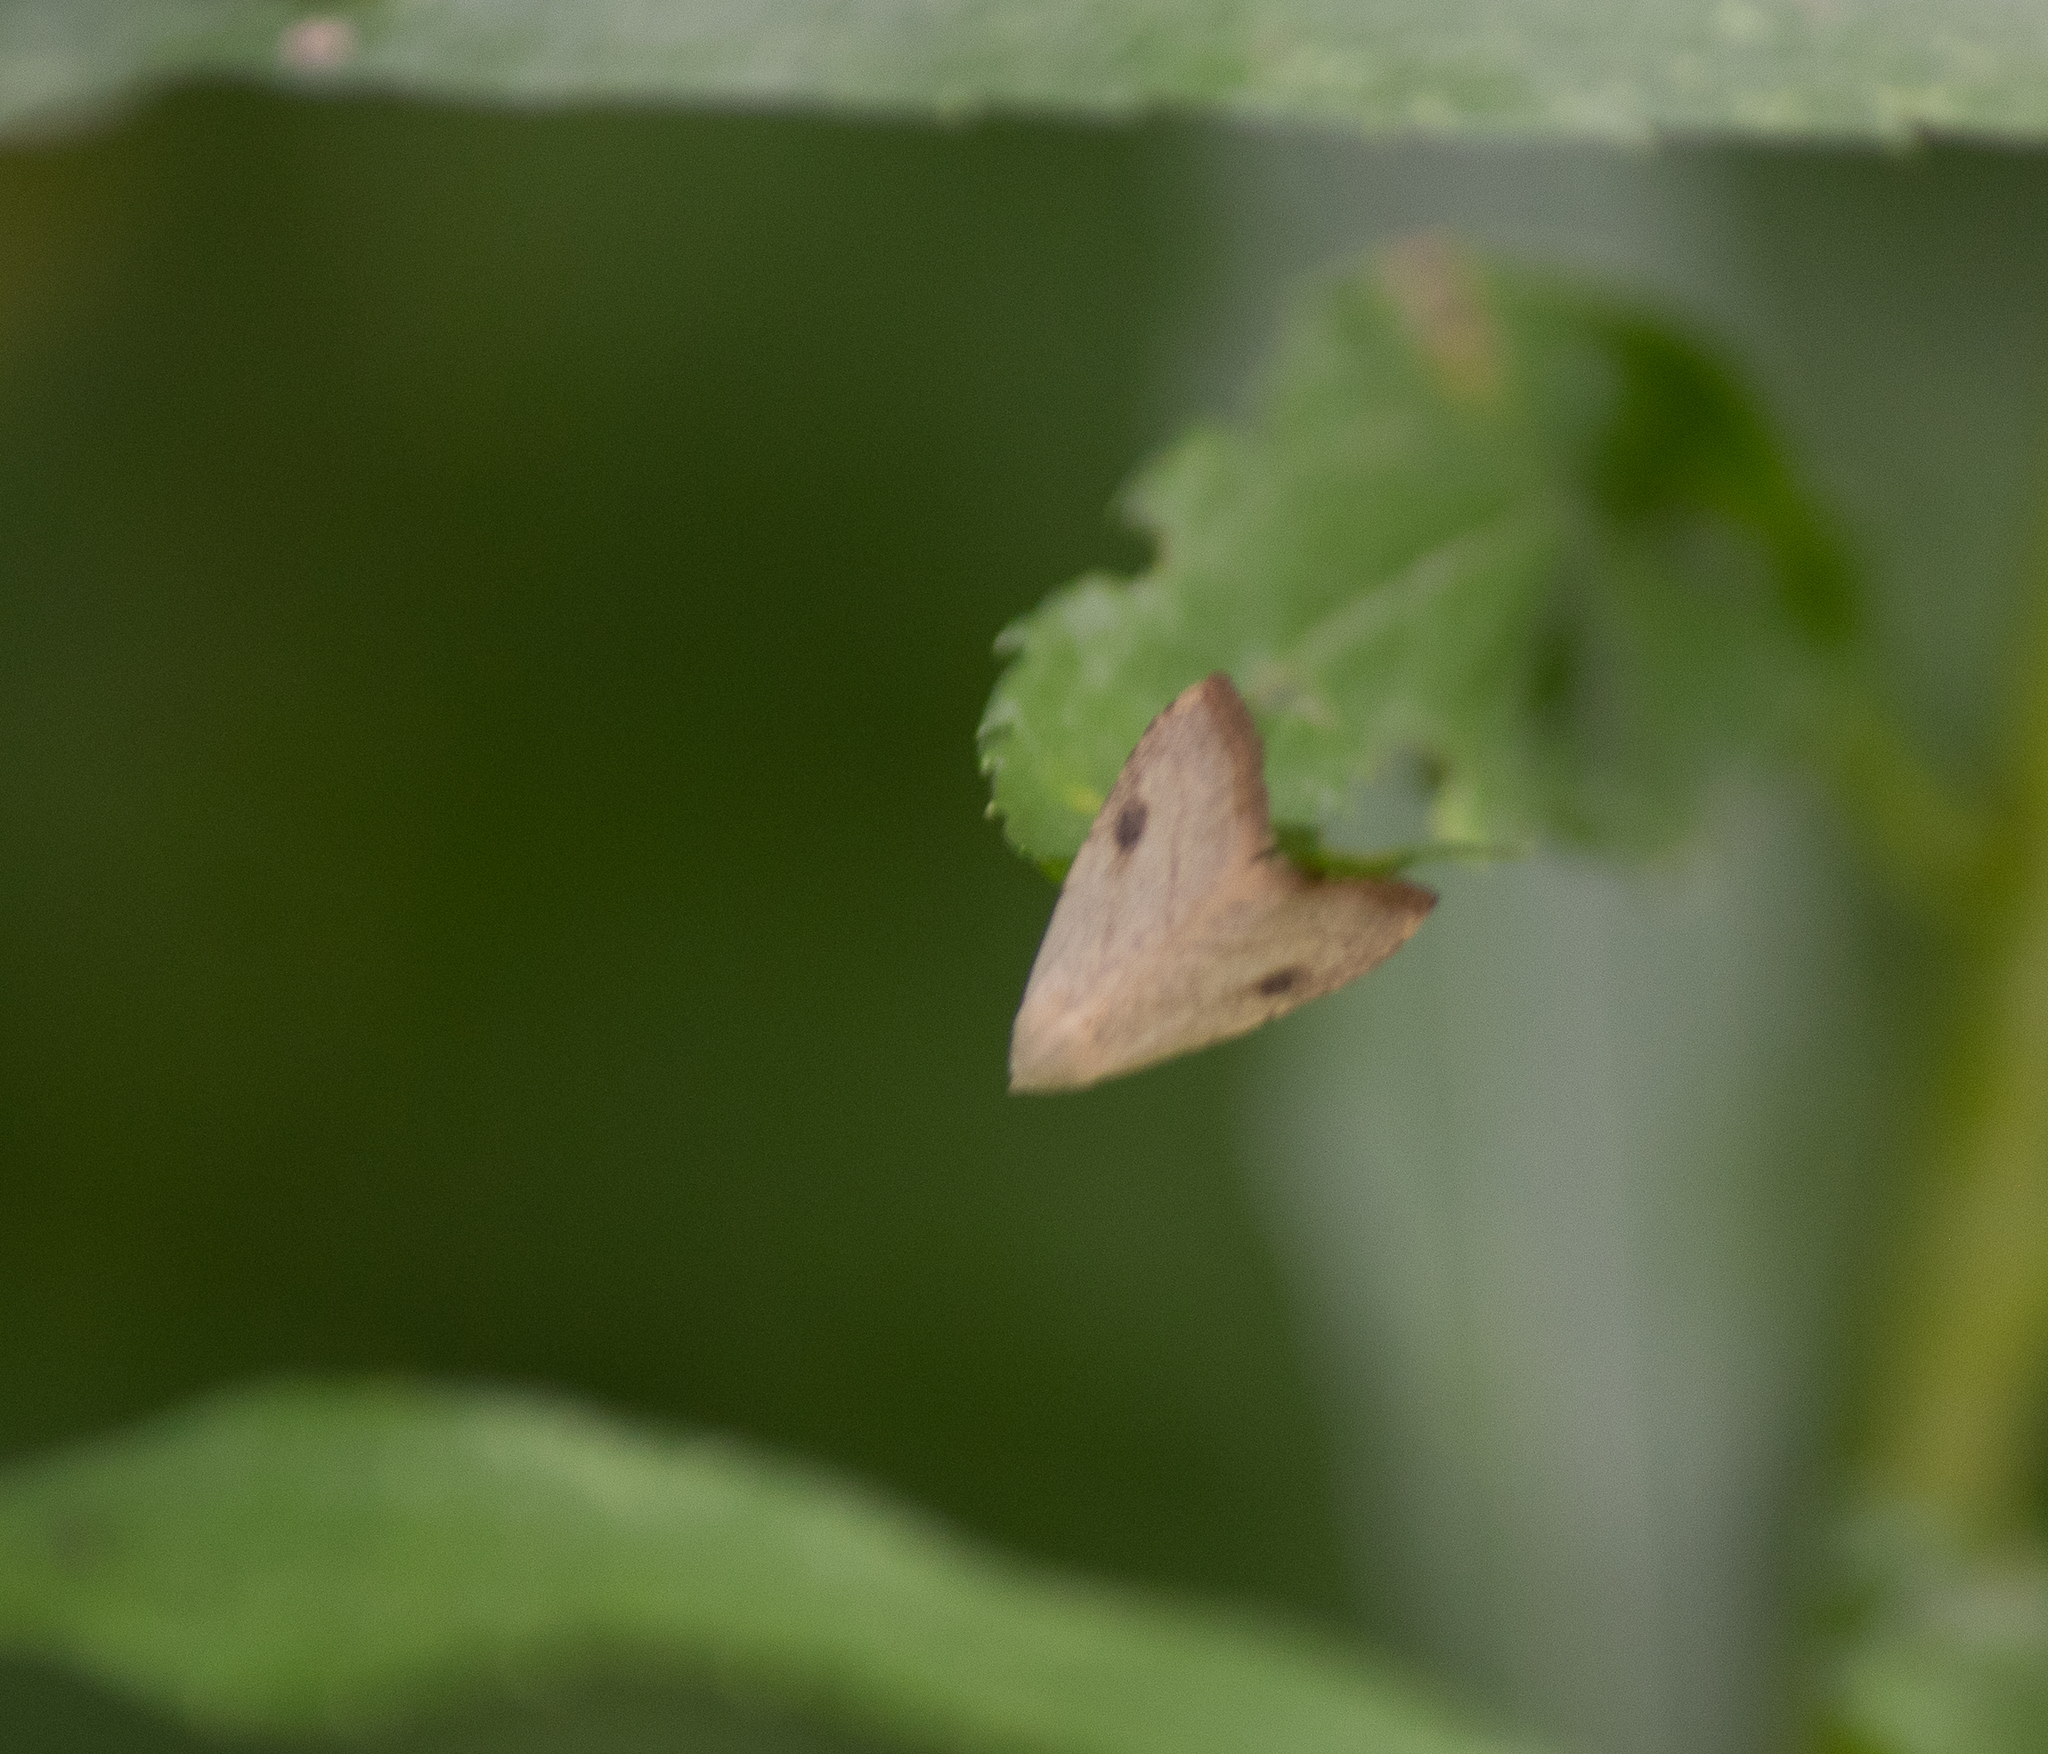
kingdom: Animalia
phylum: Arthropoda
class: Insecta
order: Lepidoptera
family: Erebidae
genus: Rivula
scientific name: Rivula propinqualis
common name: Spotted grass moth
